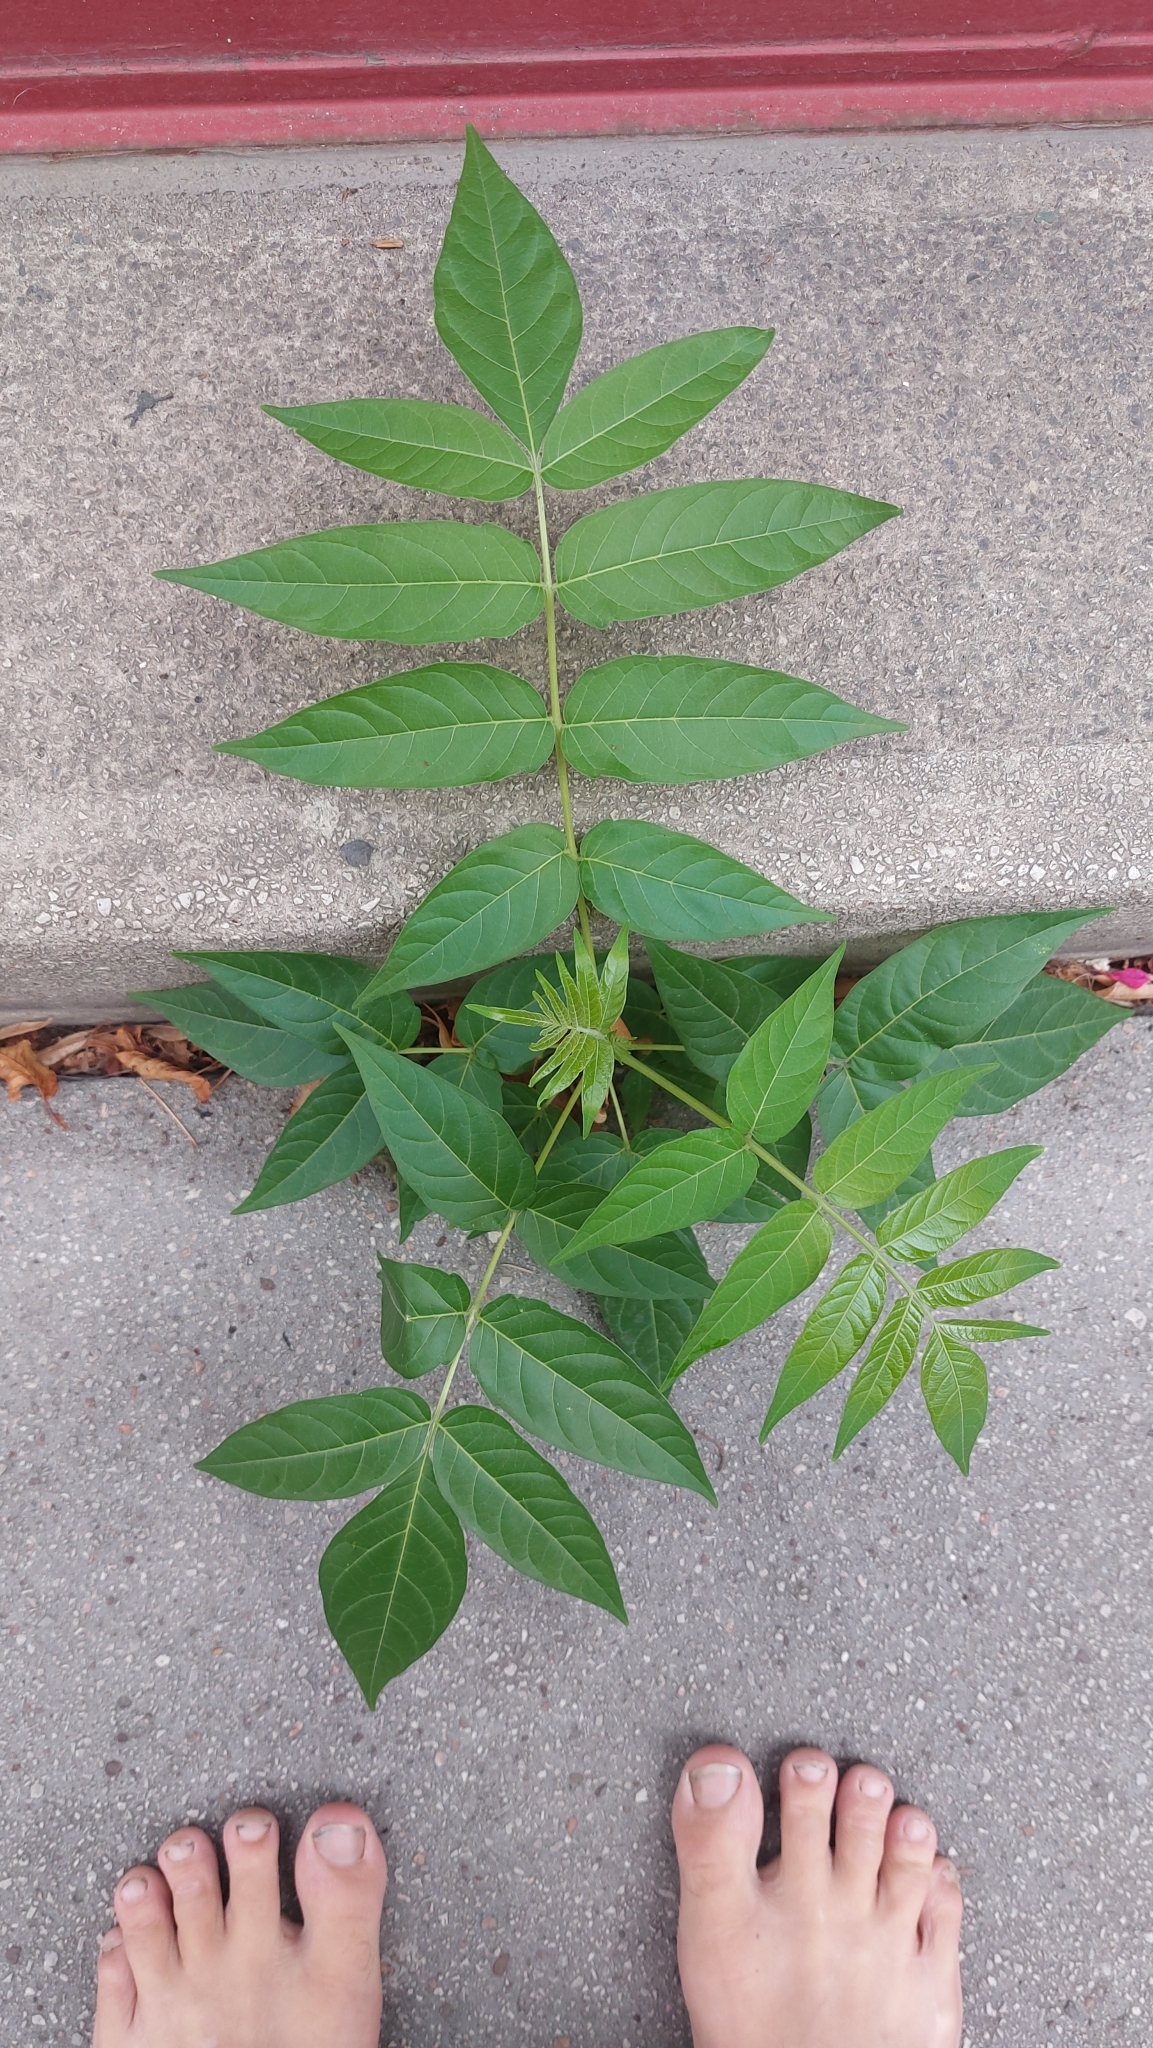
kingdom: Plantae
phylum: Tracheophyta
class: Magnoliopsida
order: Sapindales
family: Simaroubaceae
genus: Ailanthus
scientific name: Ailanthus altissima
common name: Tree-of-heaven
